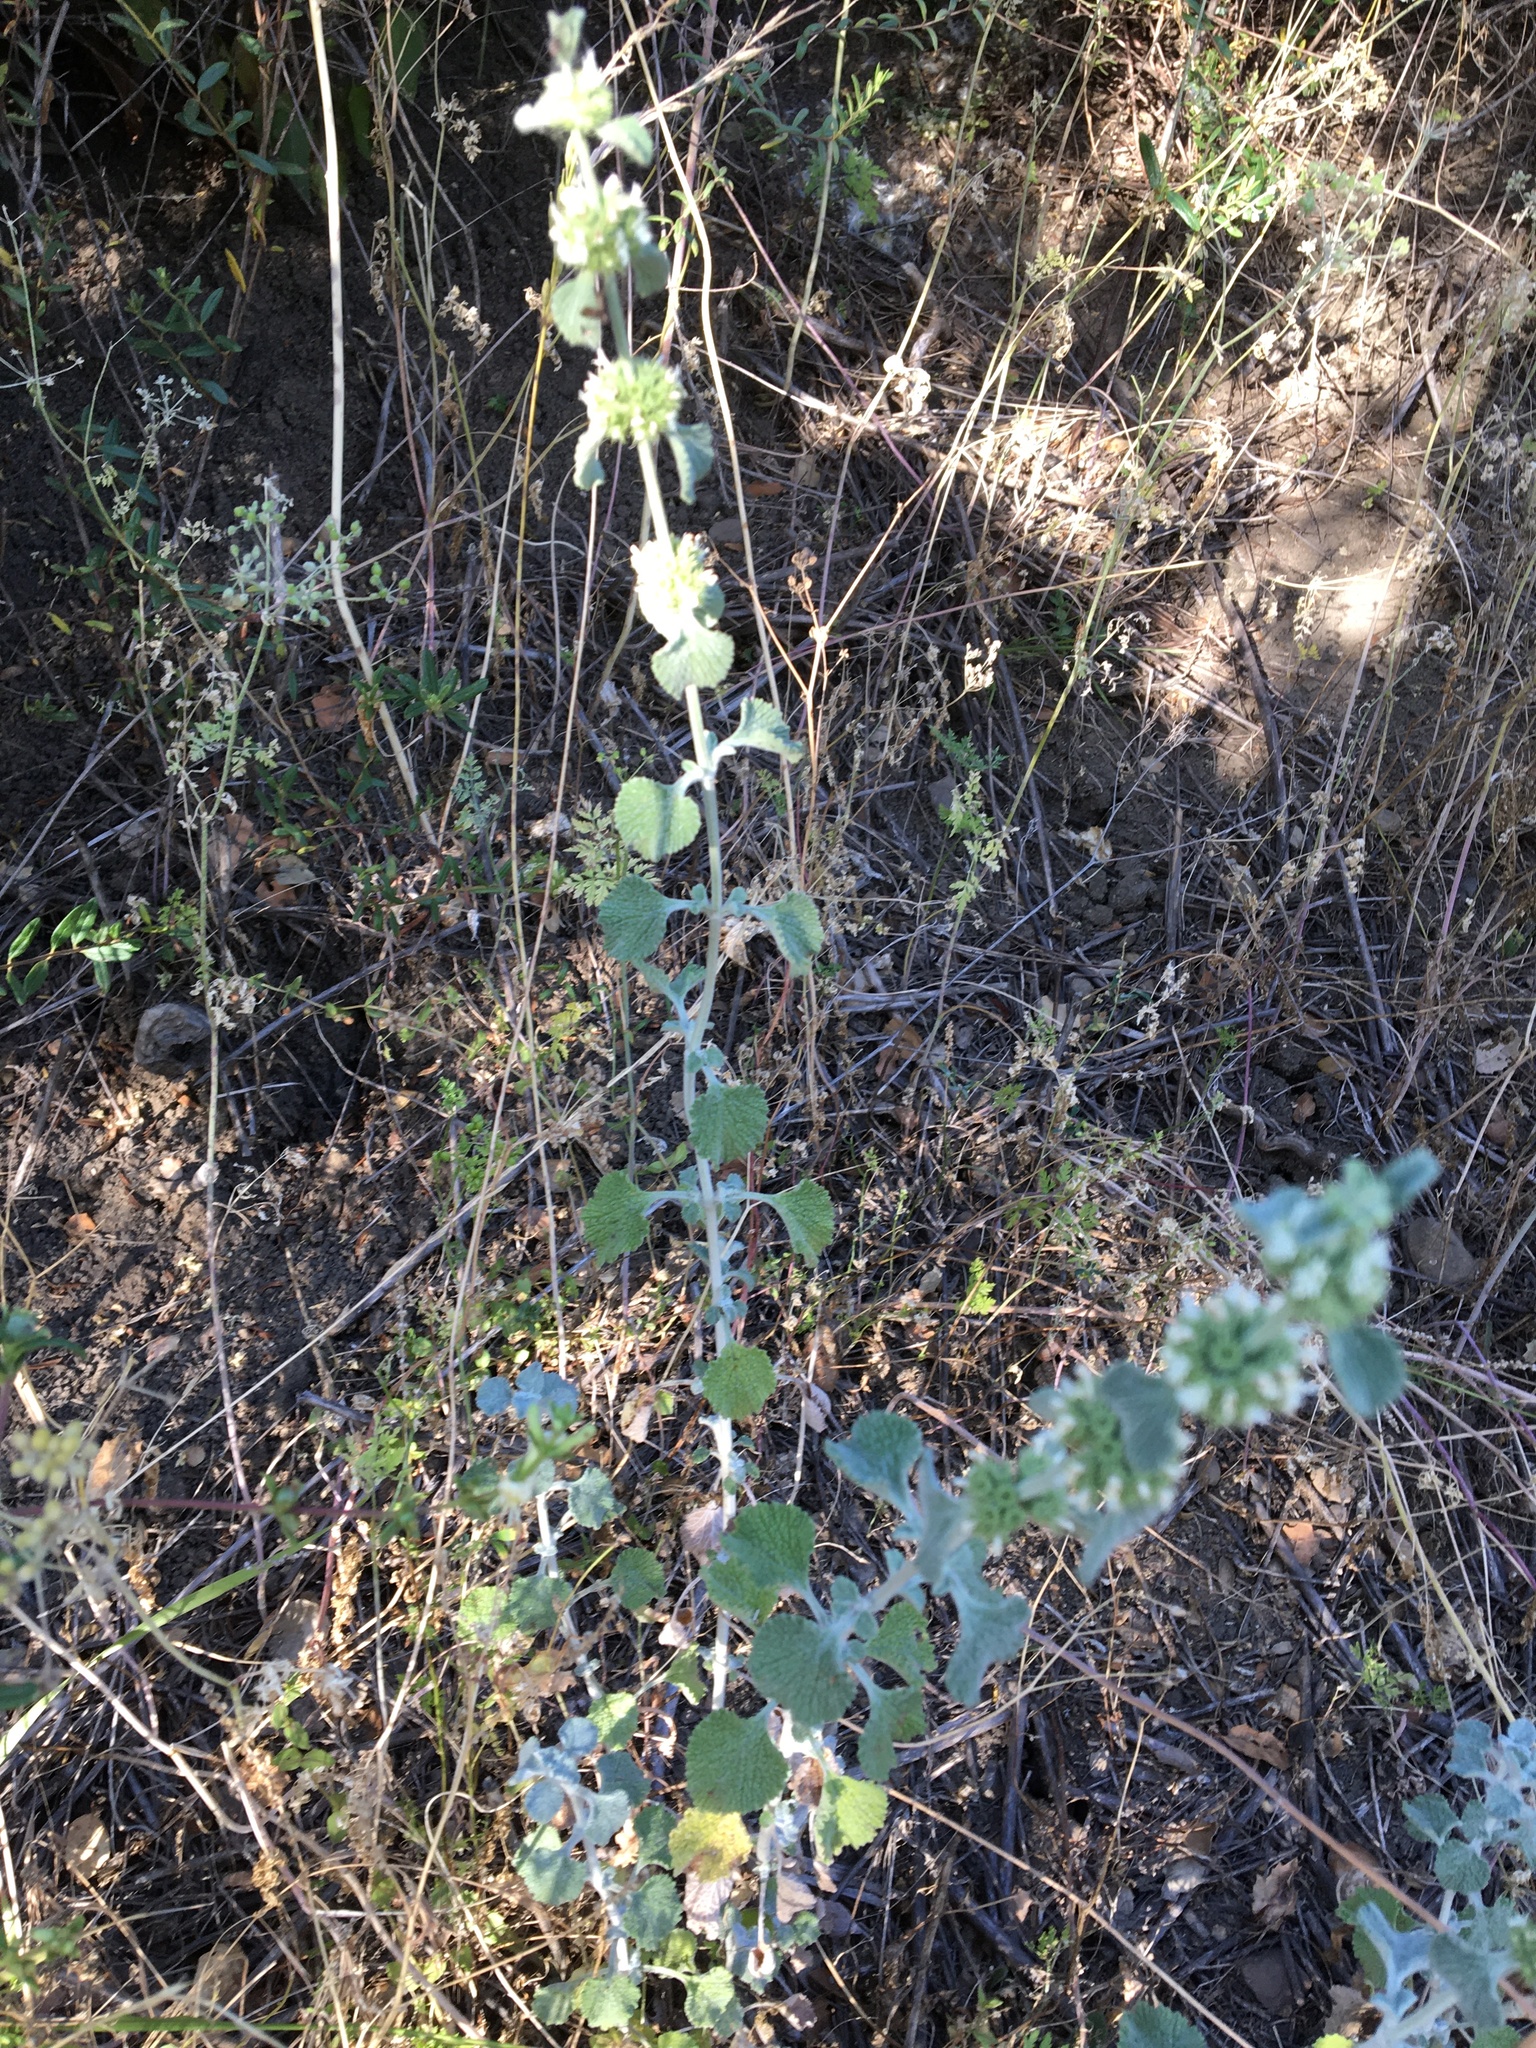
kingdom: Plantae
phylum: Tracheophyta
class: Magnoliopsida
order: Lamiales
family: Lamiaceae
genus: Marrubium
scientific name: Marrubium vulgare
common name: Horehound
